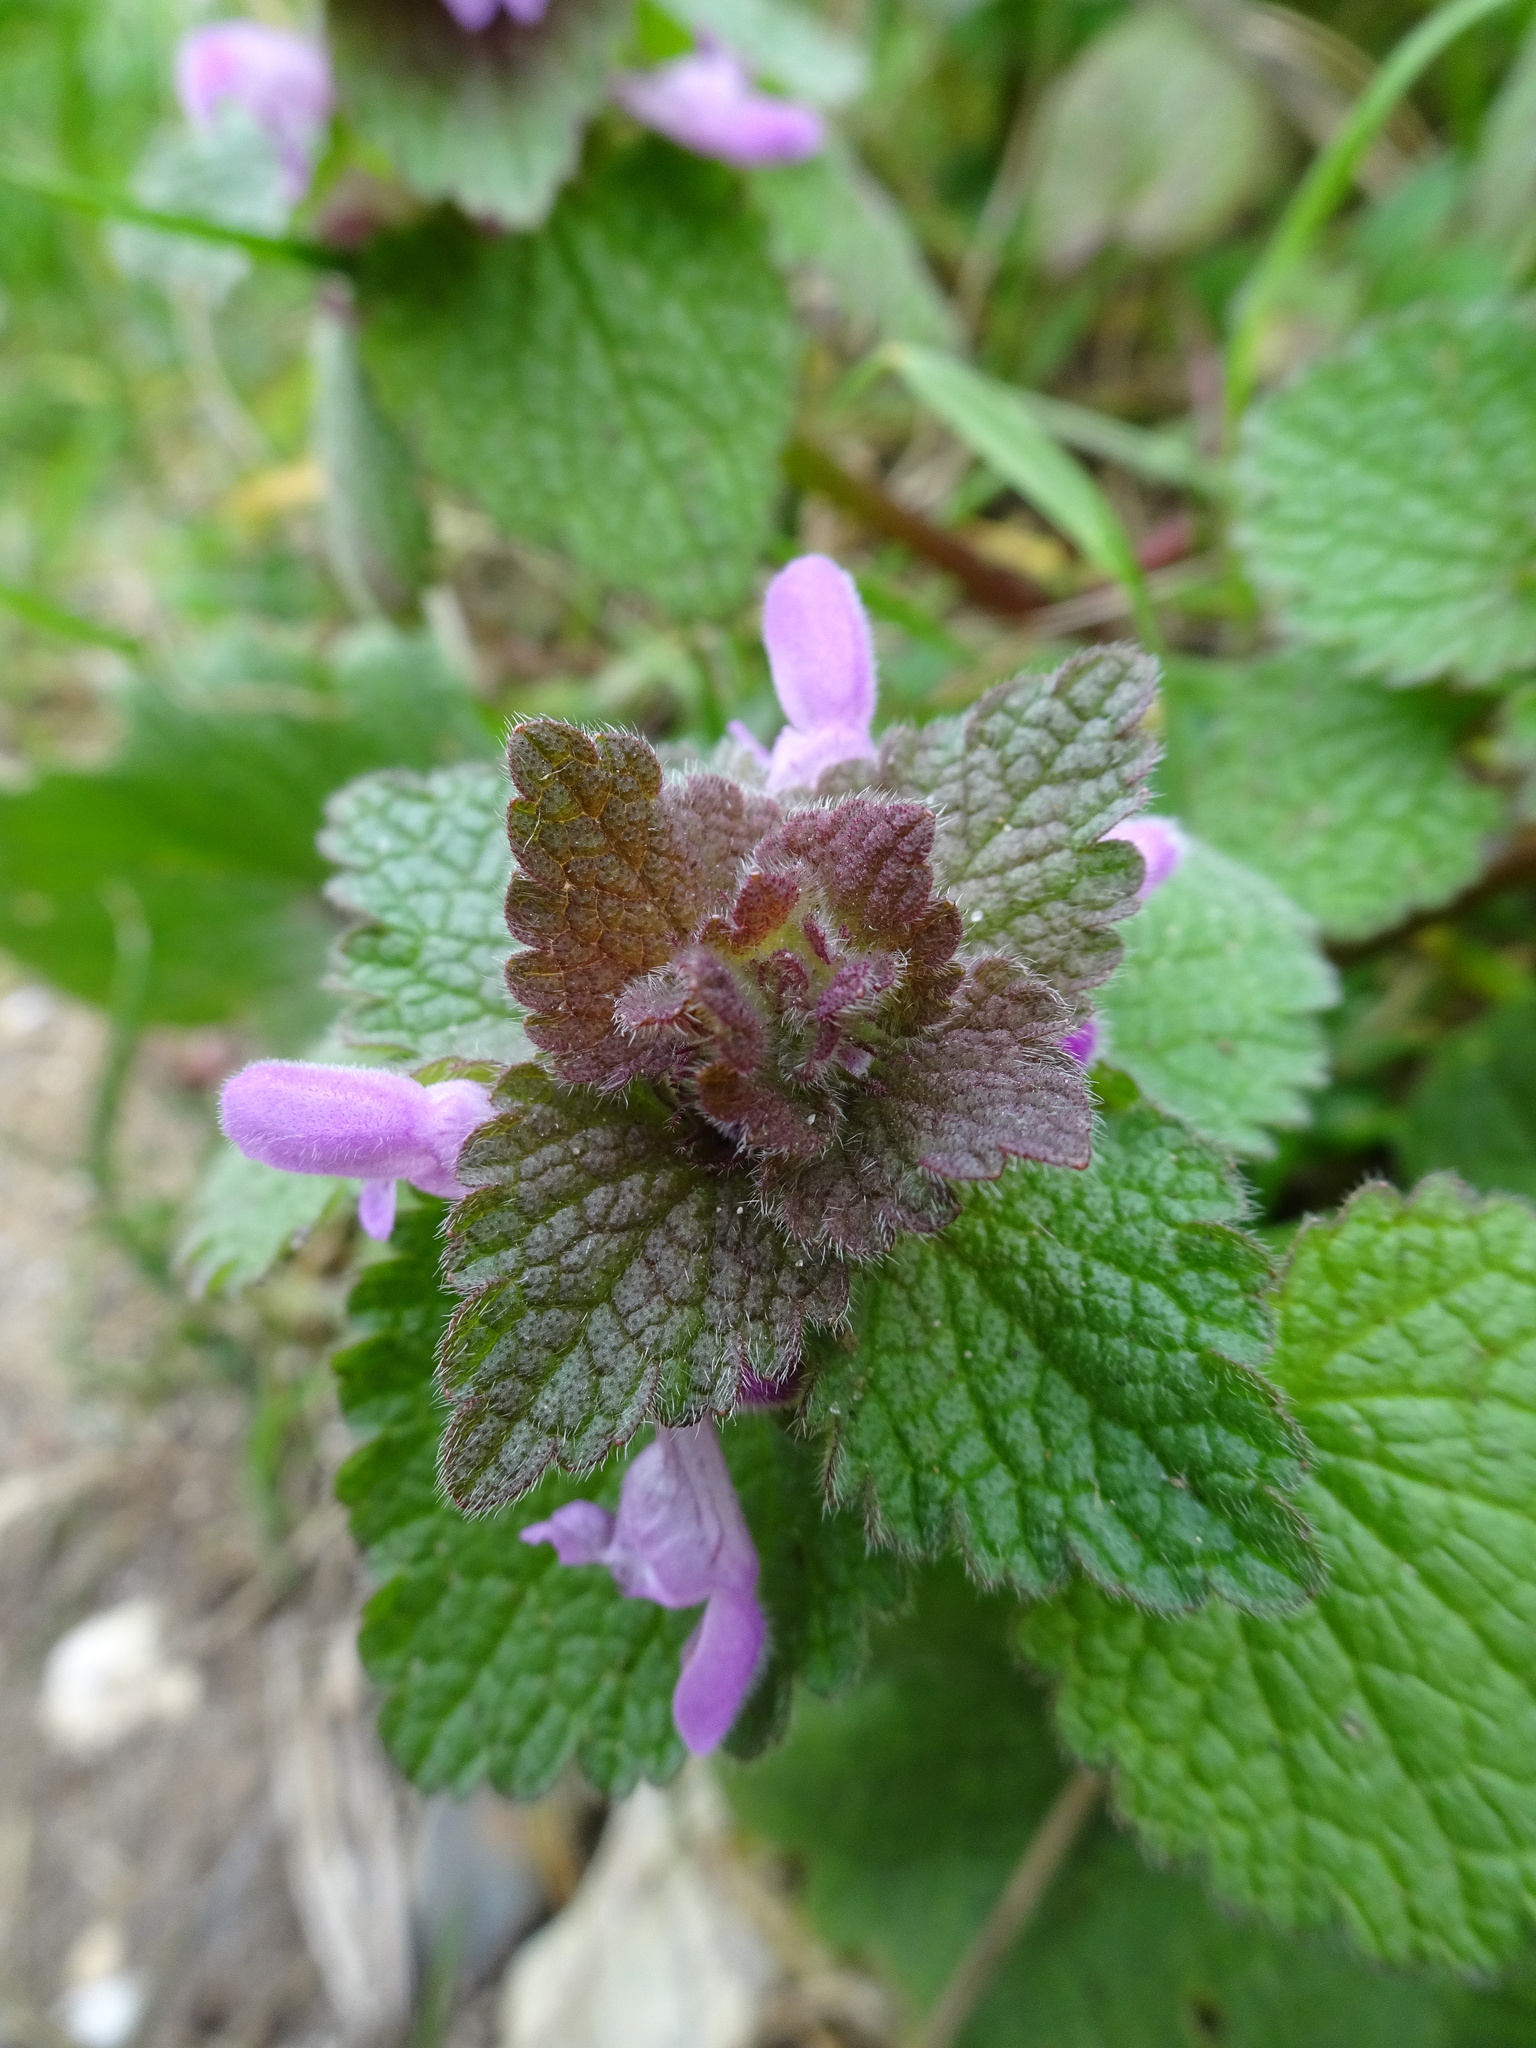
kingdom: Plantae
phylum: Tracheophyta
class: Magnoliopsida
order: Lamiales
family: Lamiaceae
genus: Lamium
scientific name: Lamium purpureum
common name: Red dead-nettle
